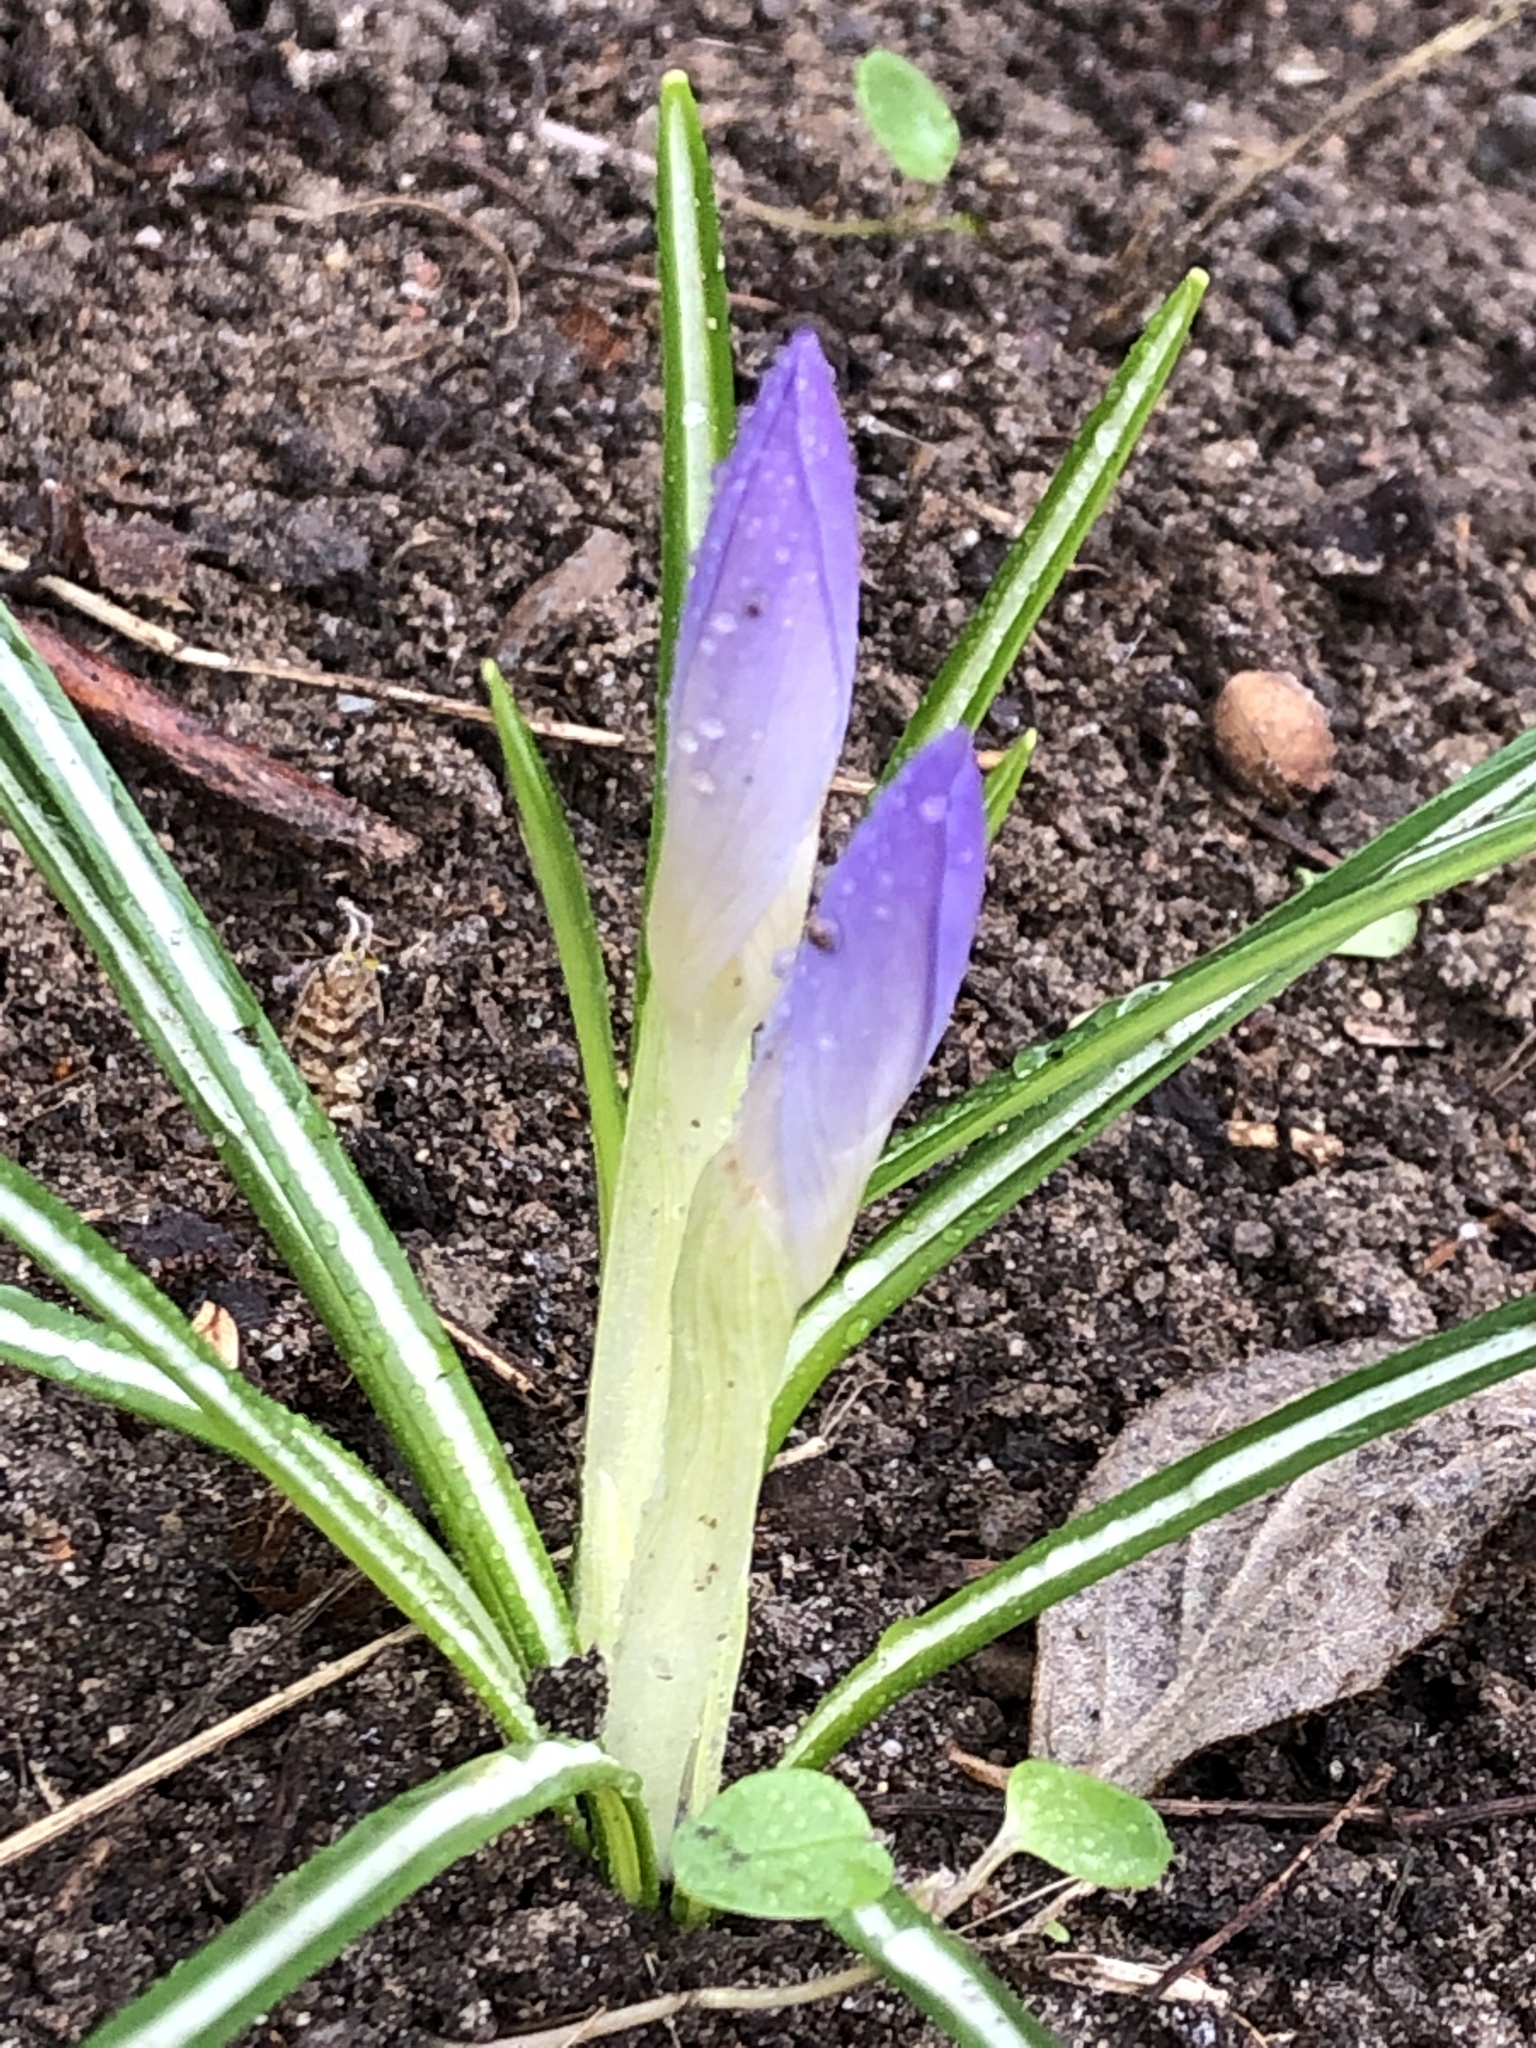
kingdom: Plantae
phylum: Tracheophyta
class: Liliopsida
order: Asparagales
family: Iridaceae
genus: Crocus
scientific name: Crocus tommasinianus
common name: Early crocus
